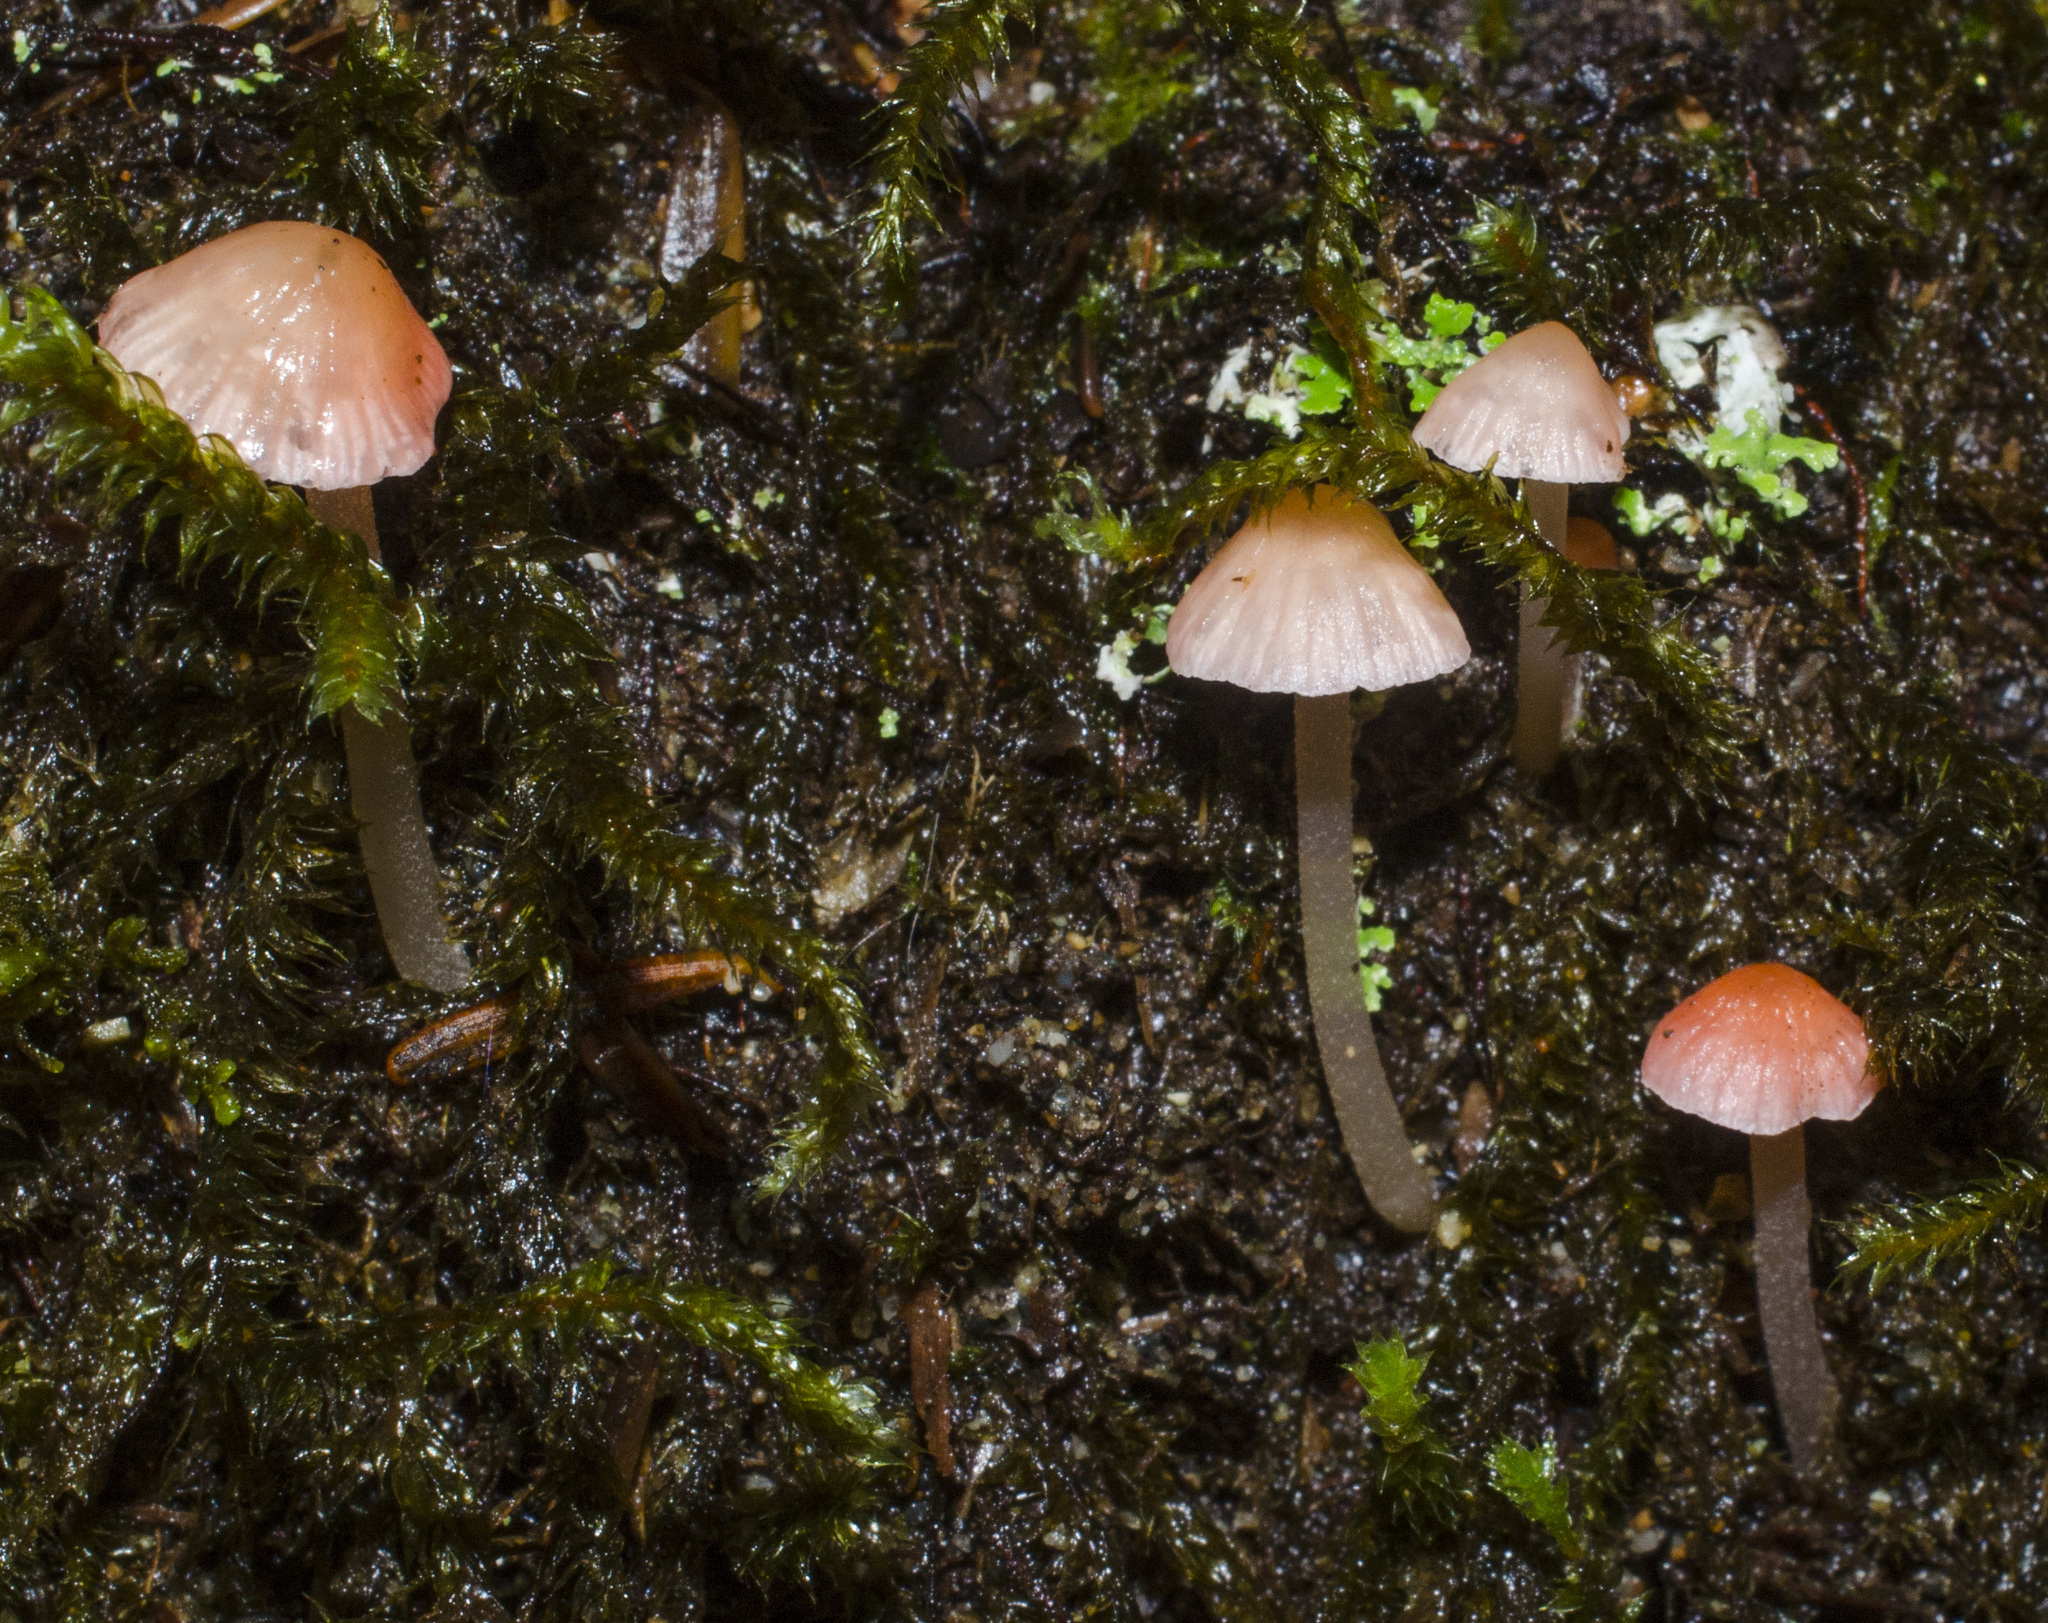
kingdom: Fungi
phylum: Basidiomycota
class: Agaricomycetes
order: Agaricales
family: Mycenaceae
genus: Atheniella
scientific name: Atheniella adonis
